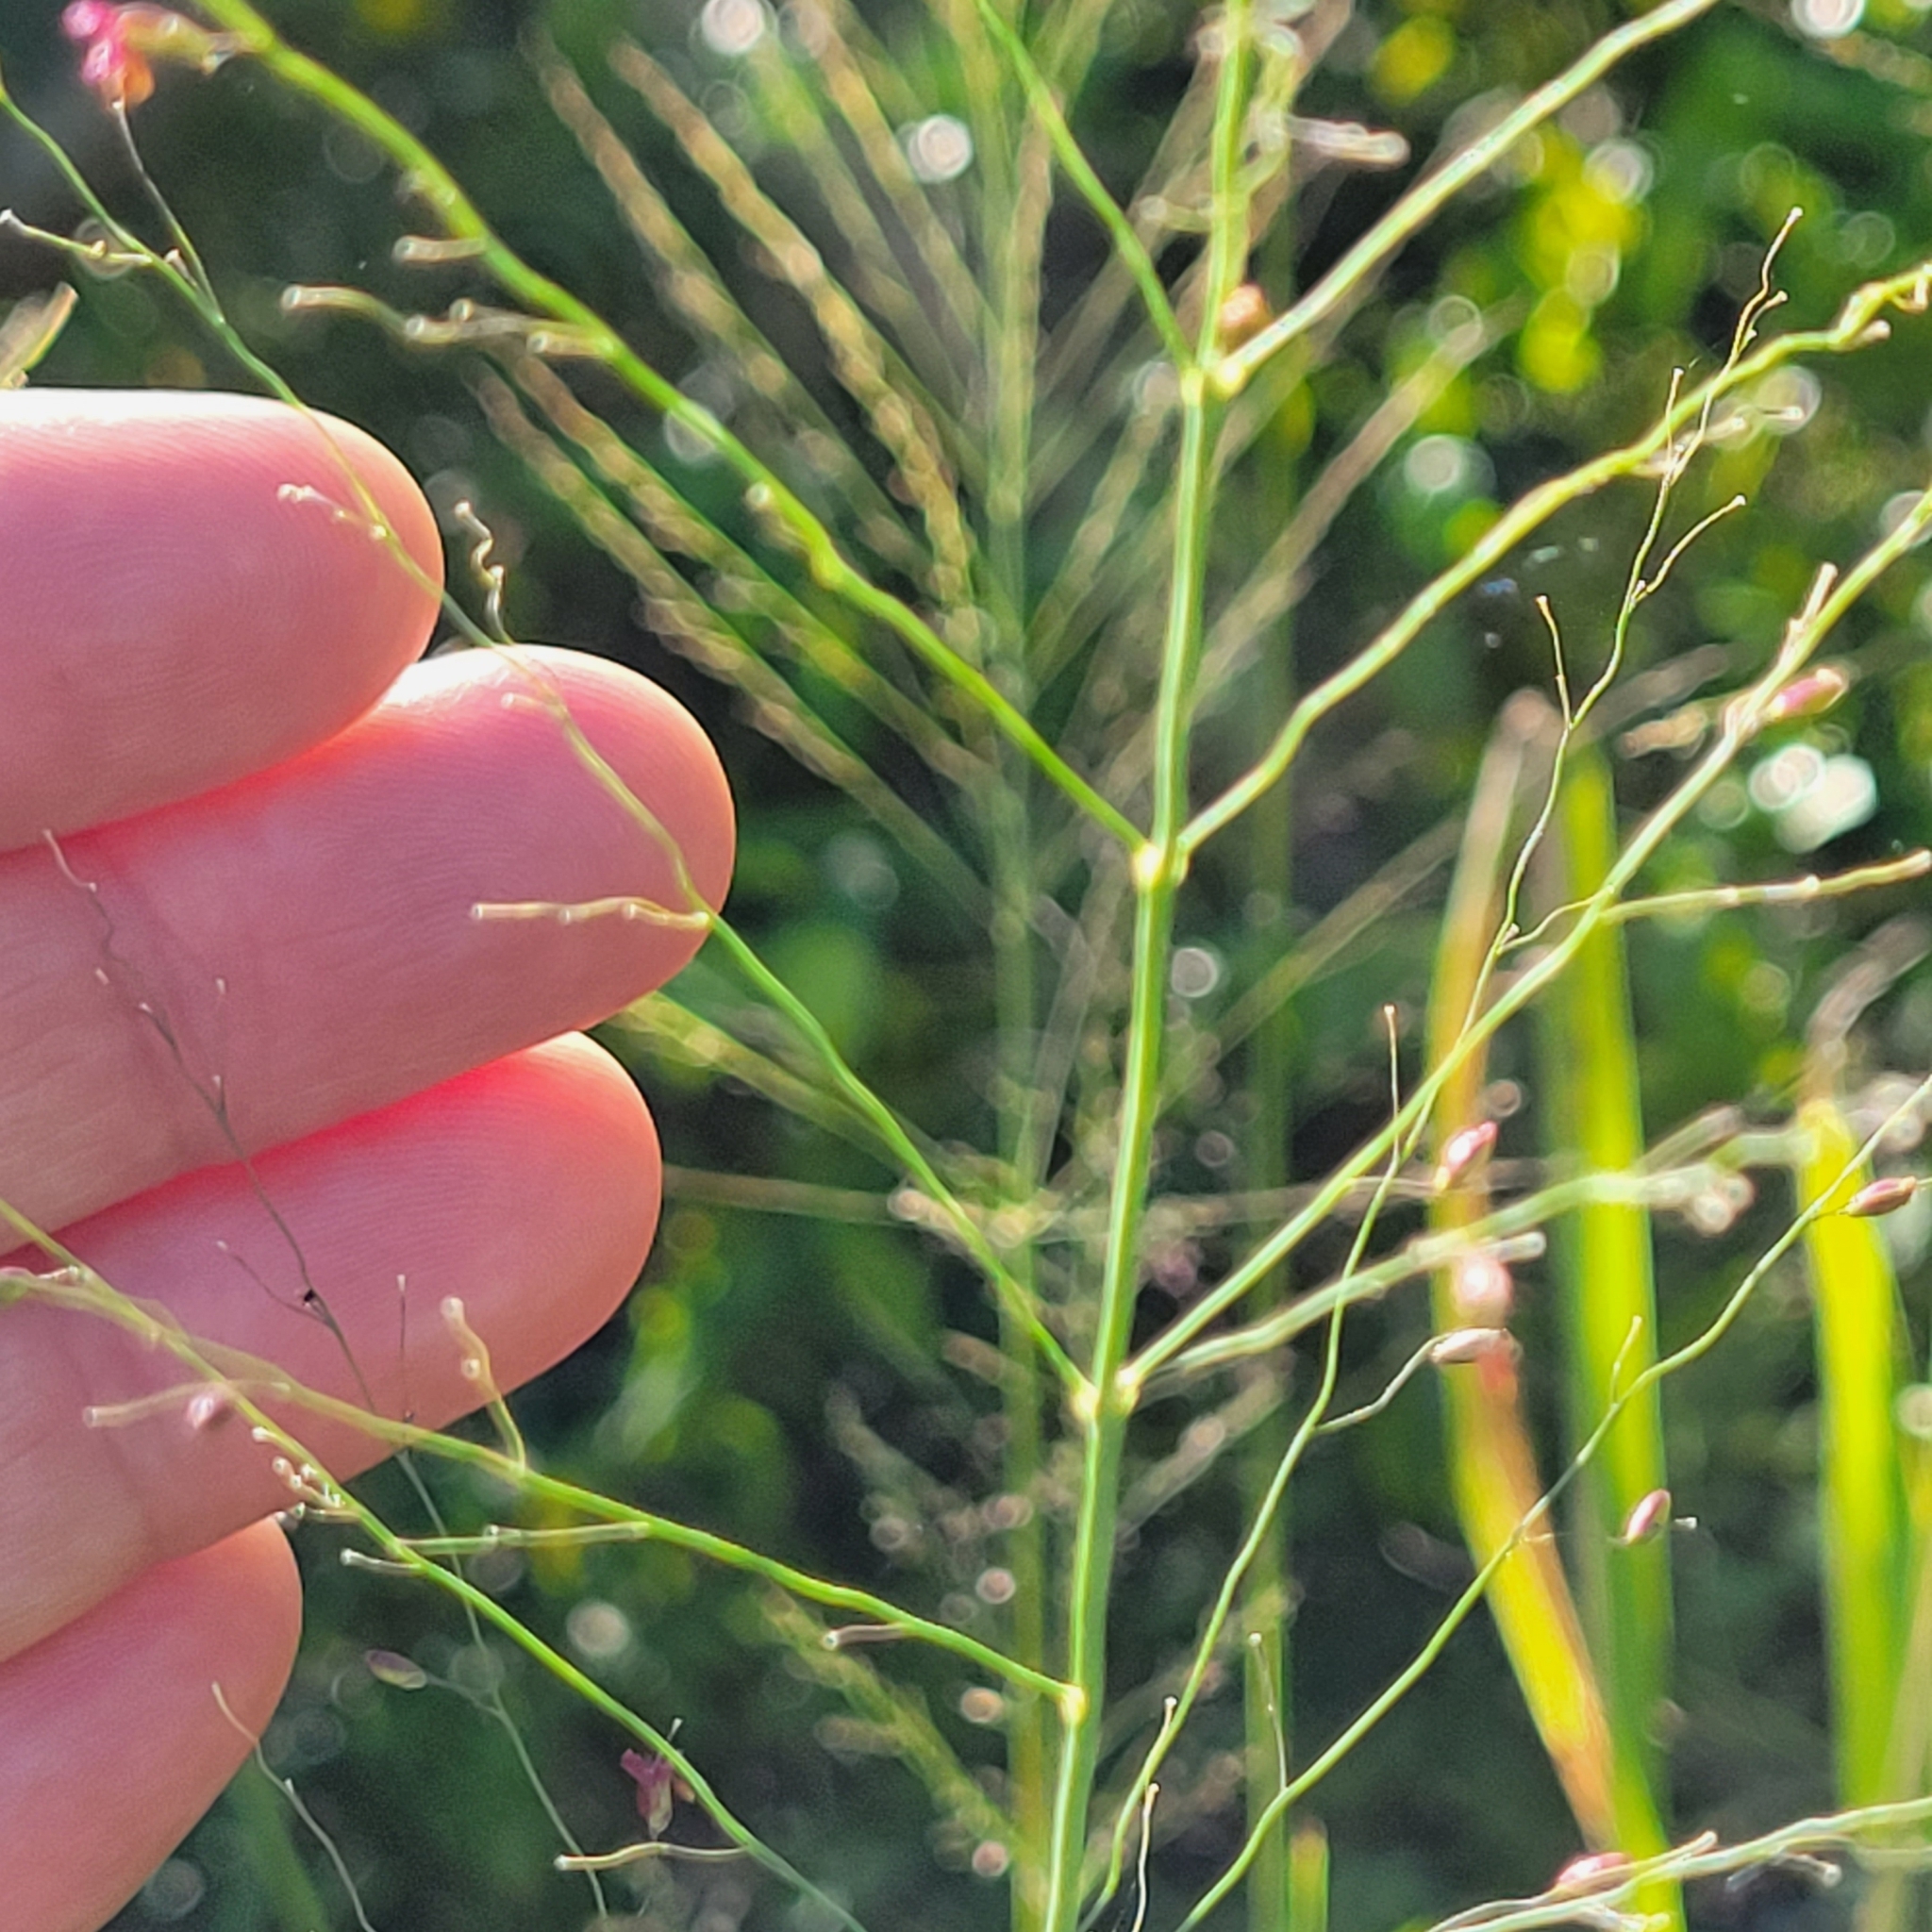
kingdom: Plantae
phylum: Tracheophyta
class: Liliopsida
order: Poales
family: Poaceae
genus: Megathyrsus
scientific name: Megathyrsus maximus
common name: Guineagrass
